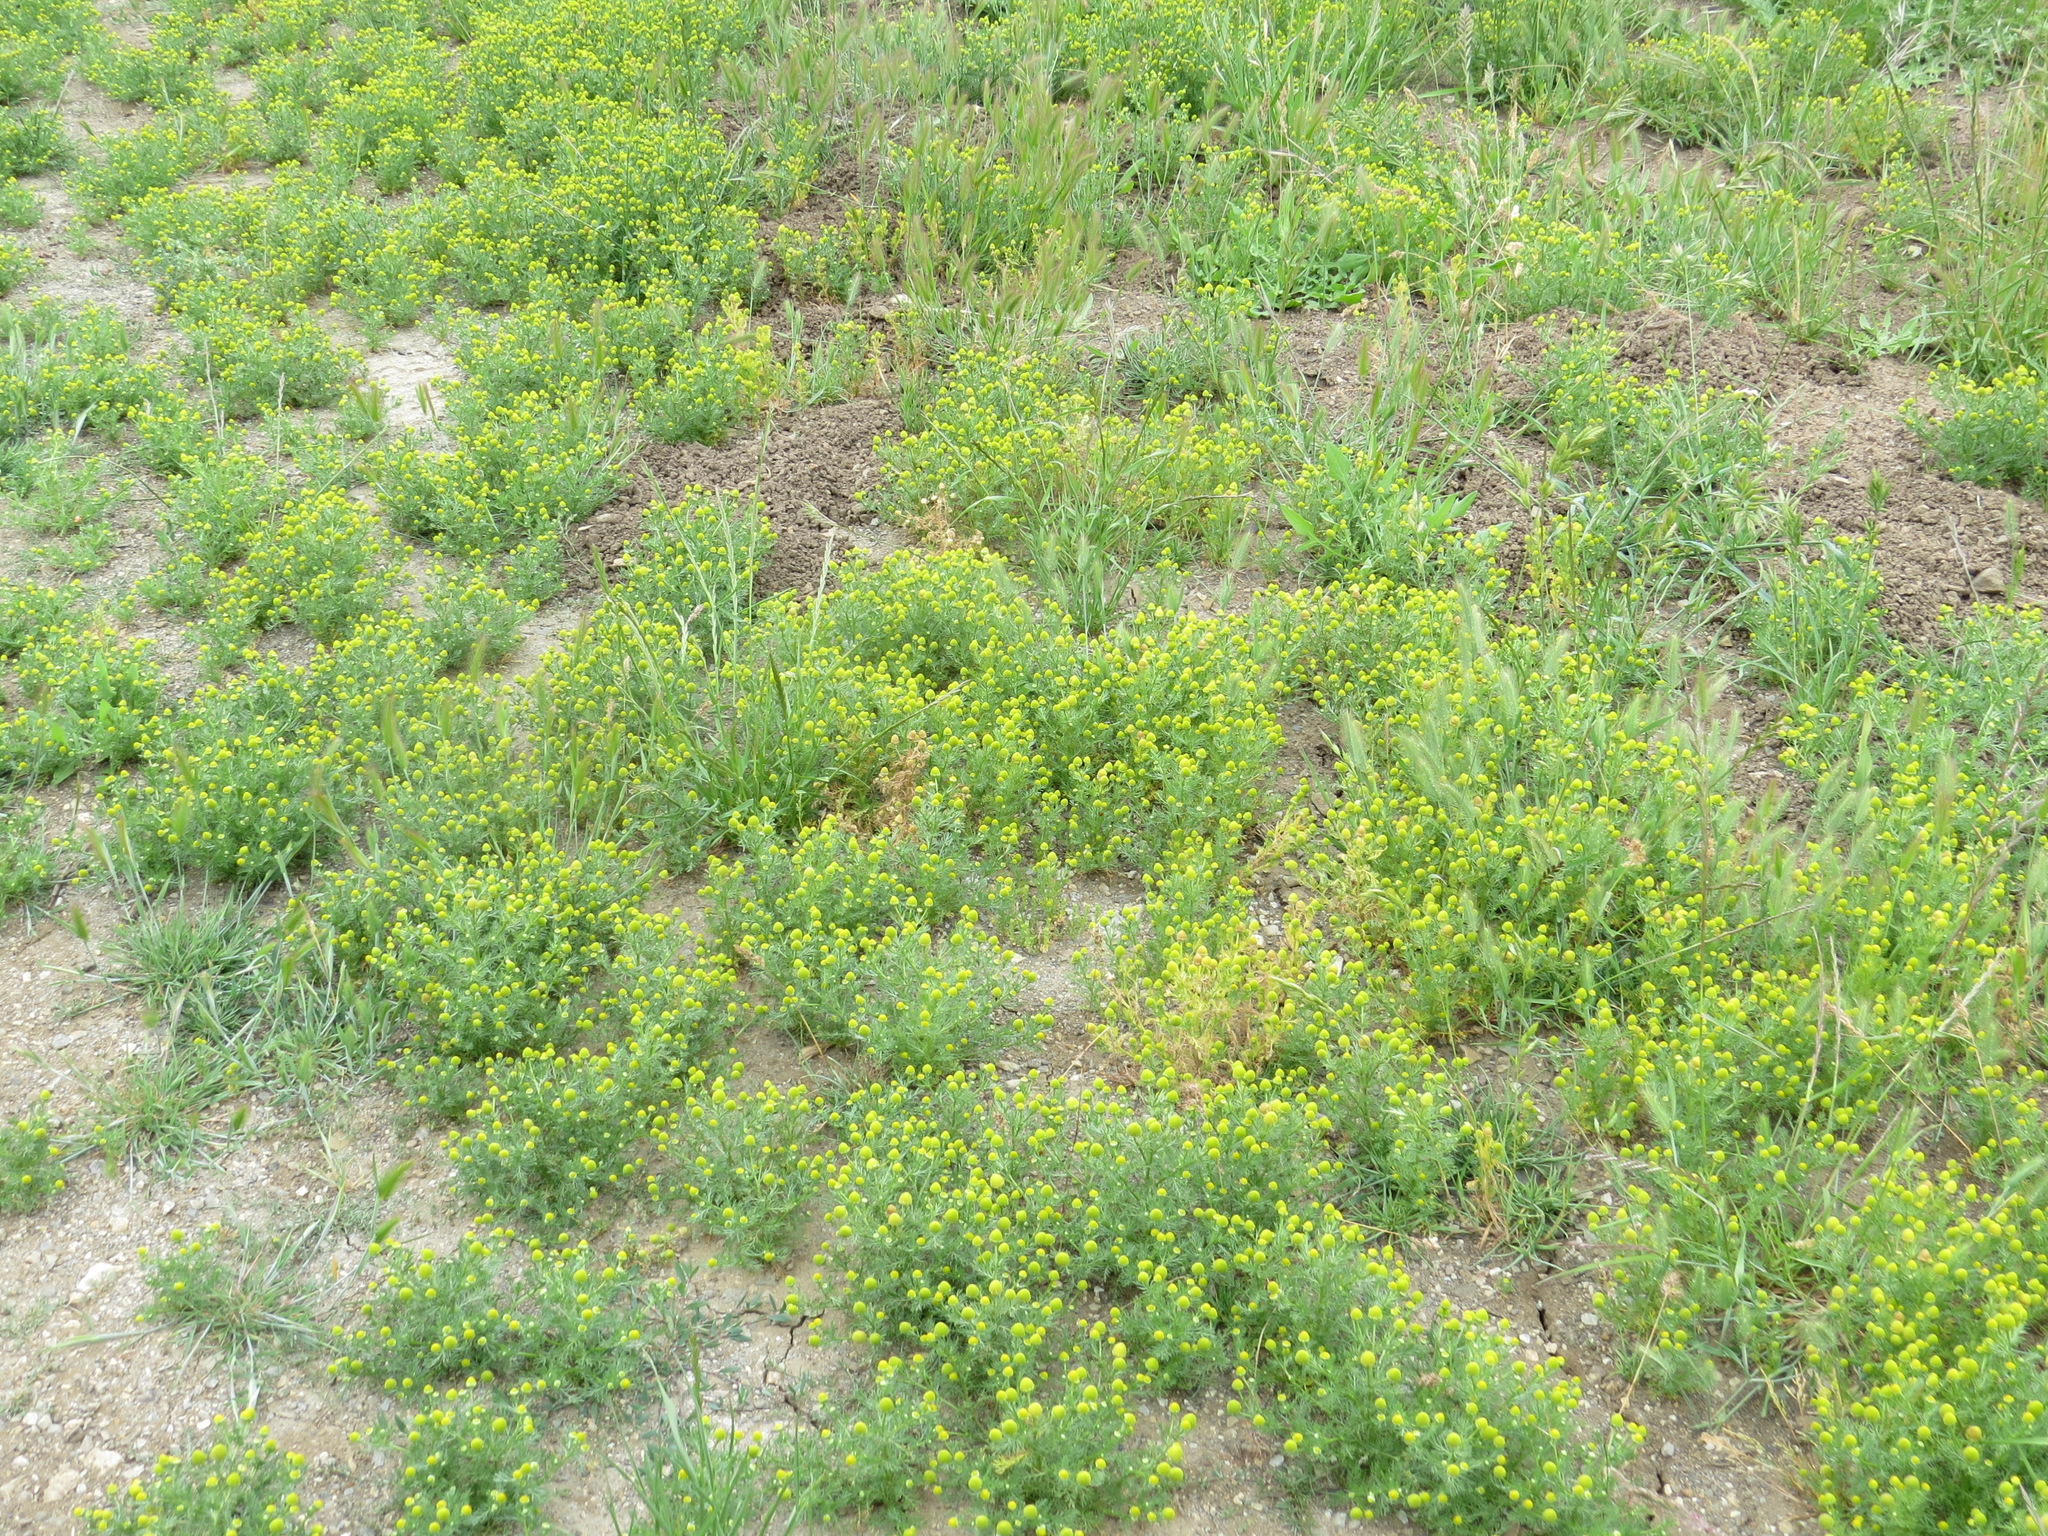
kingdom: Plantae
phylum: Tracheophyta
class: Magnoliopsida
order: Asterales
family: Asteraceae
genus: Matricaria
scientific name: Matricaria discoidea
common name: Disc mayweed
